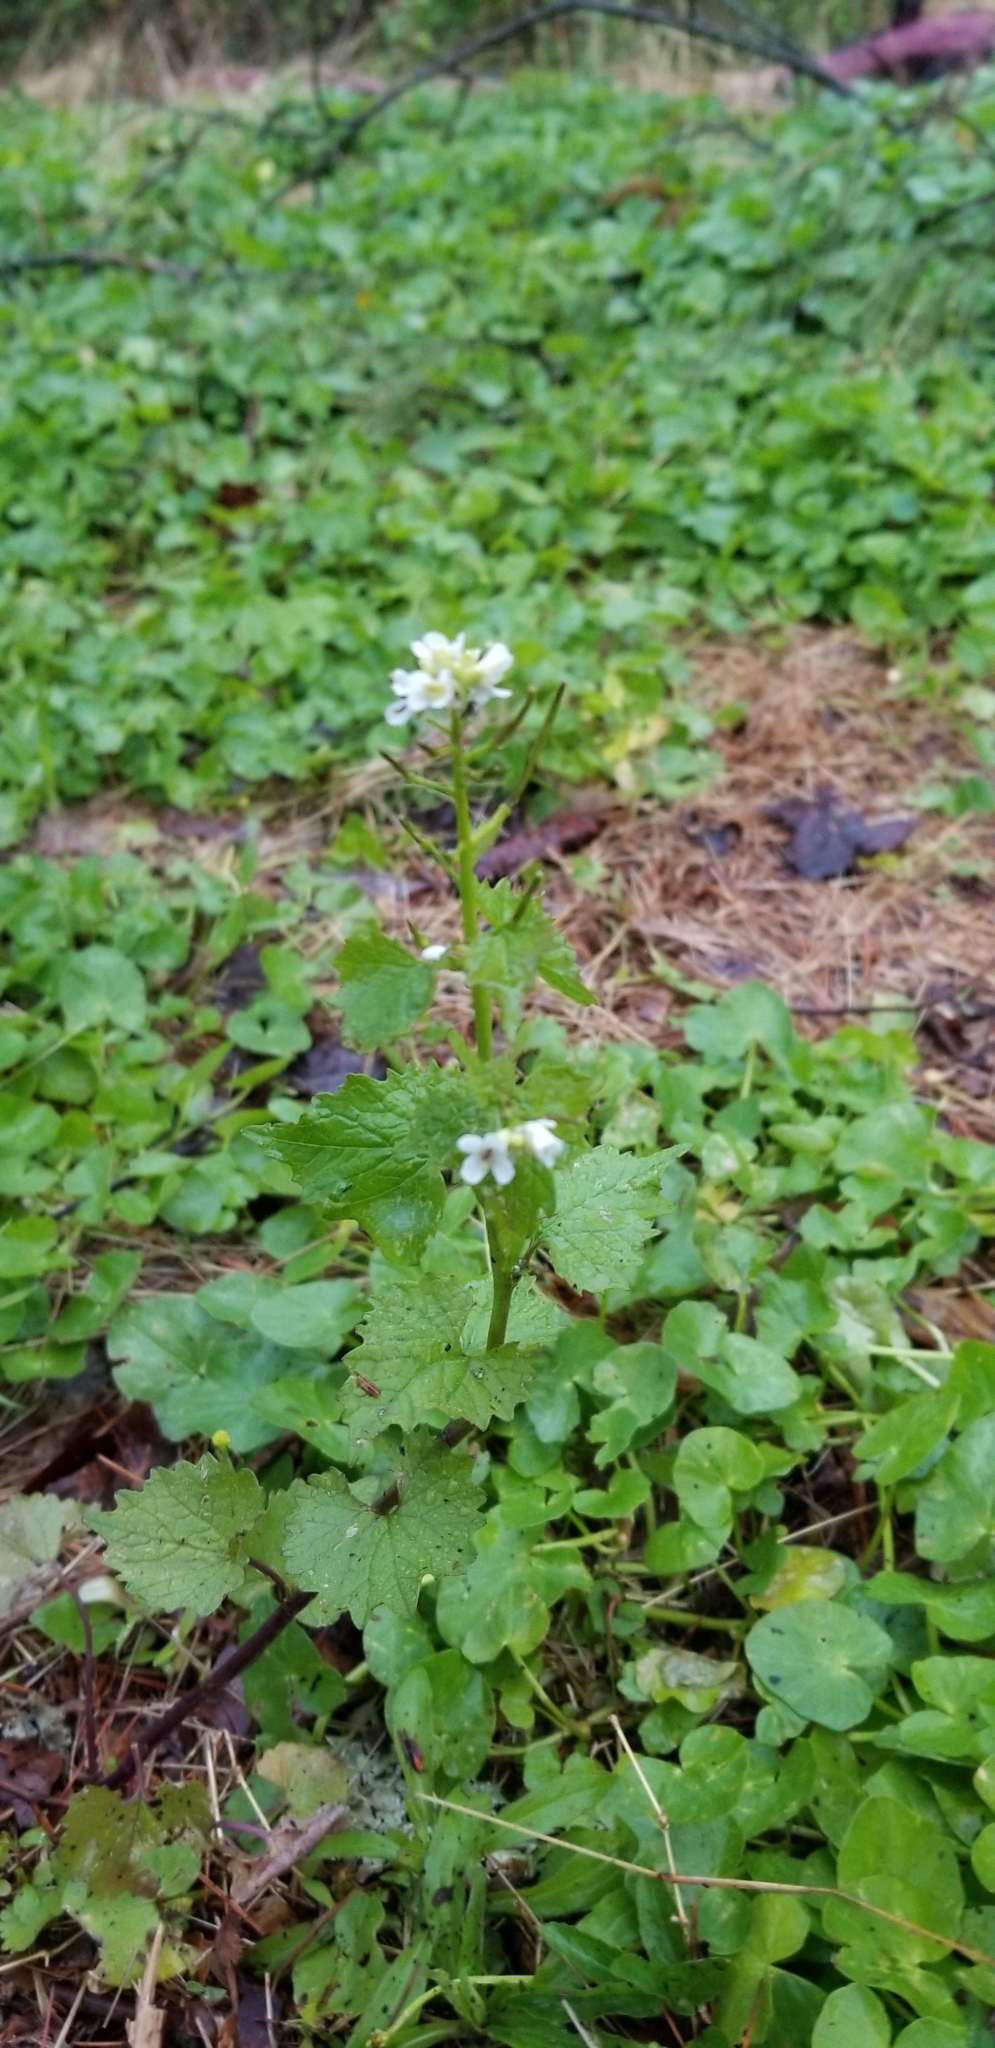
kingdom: Plantae
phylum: Tracheophyta
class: Magnoliopsida
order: Brassicales
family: Brassicaceae
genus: Alliaria
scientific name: Alliaria petiolata
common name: Garlic mustard
